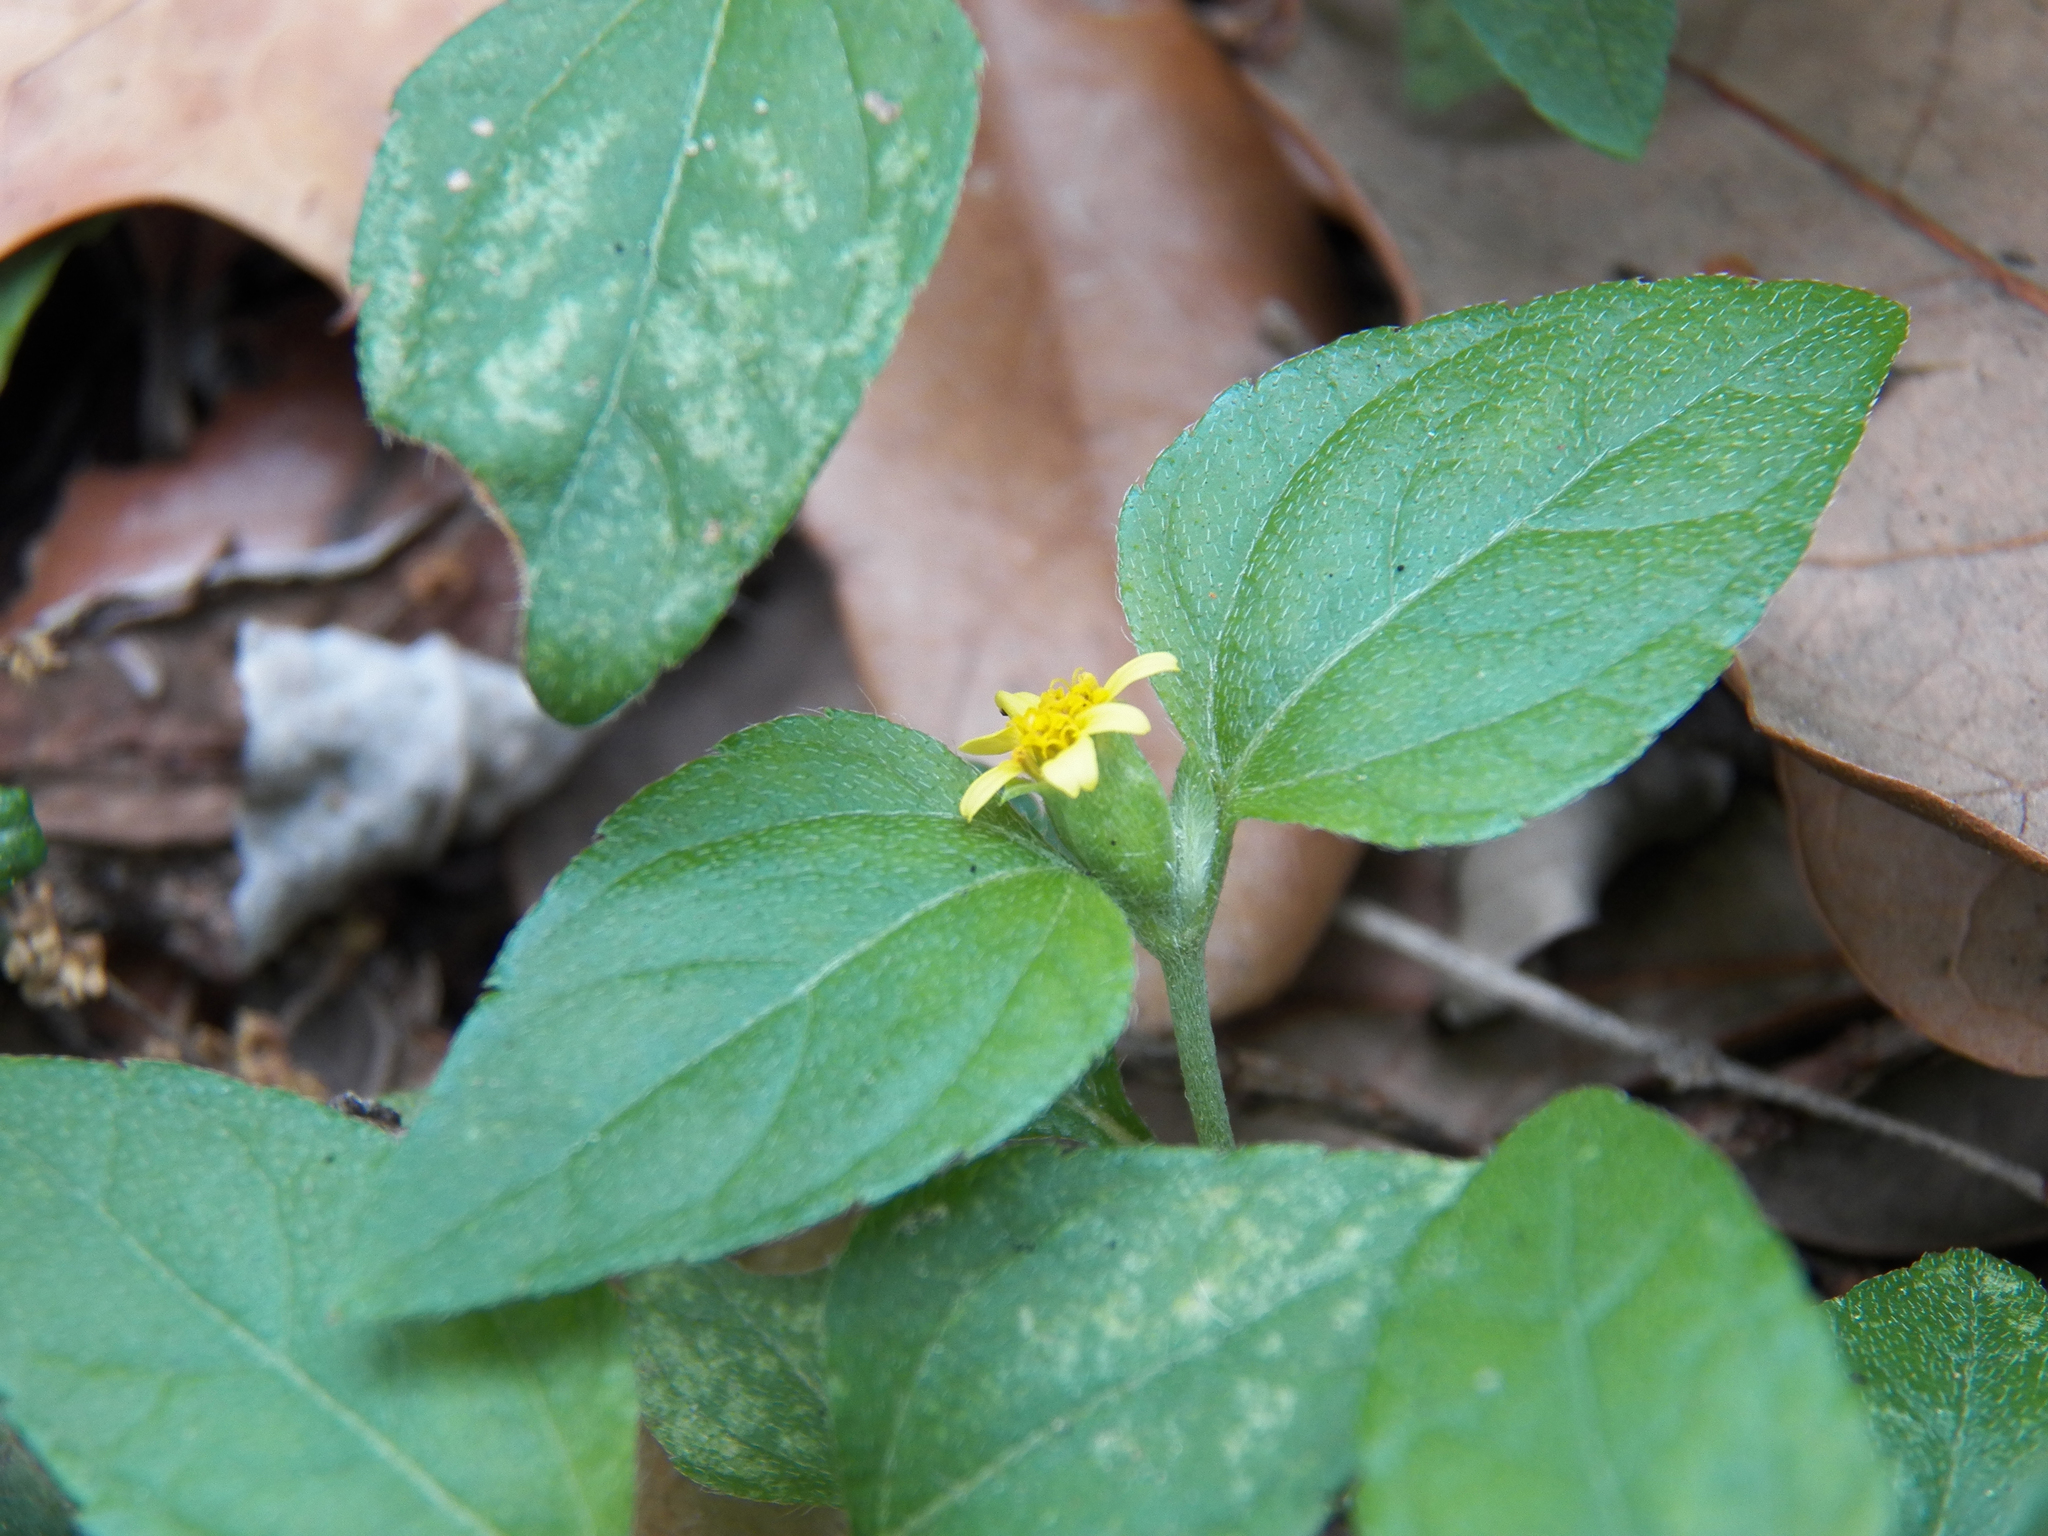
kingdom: Plantae
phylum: Tracheophyta
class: Magnoliopsida
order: Asterales
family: Asteraceae
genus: Calyptocarpus
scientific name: Calyptocarpus vialis
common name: Straggler daisy
